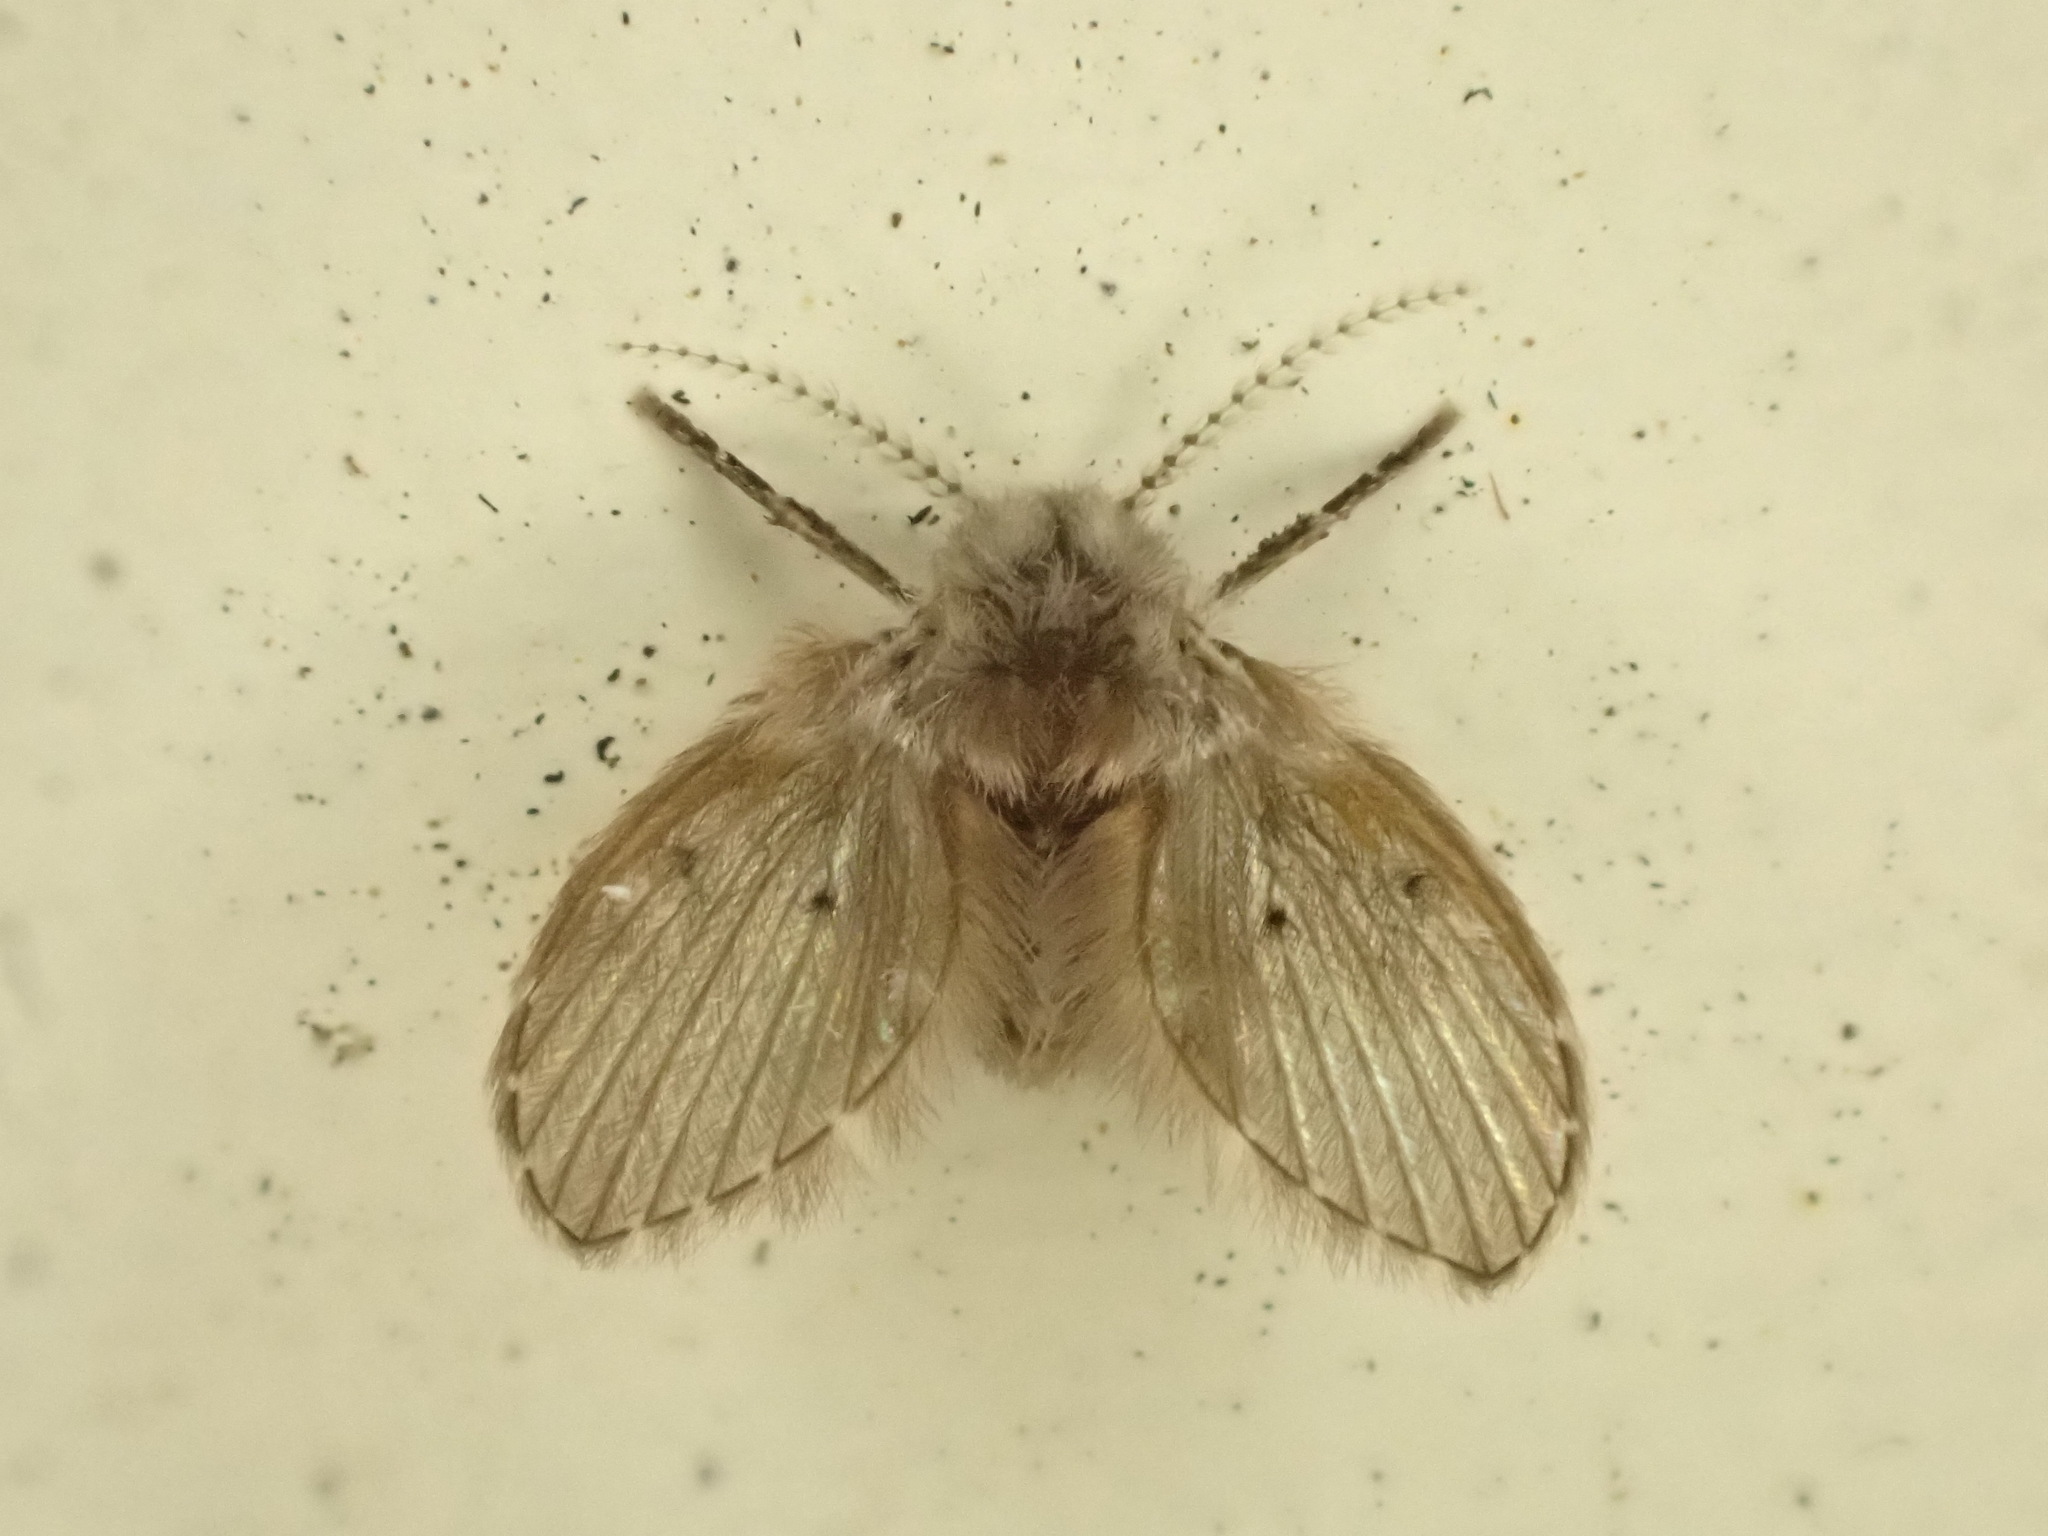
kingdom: Animalia
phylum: Arthropoda
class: Insecta
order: Diptera
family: Psychodidae
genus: Clogmia
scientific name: Clogmia albipunctatus
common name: White-spotted moth fly
